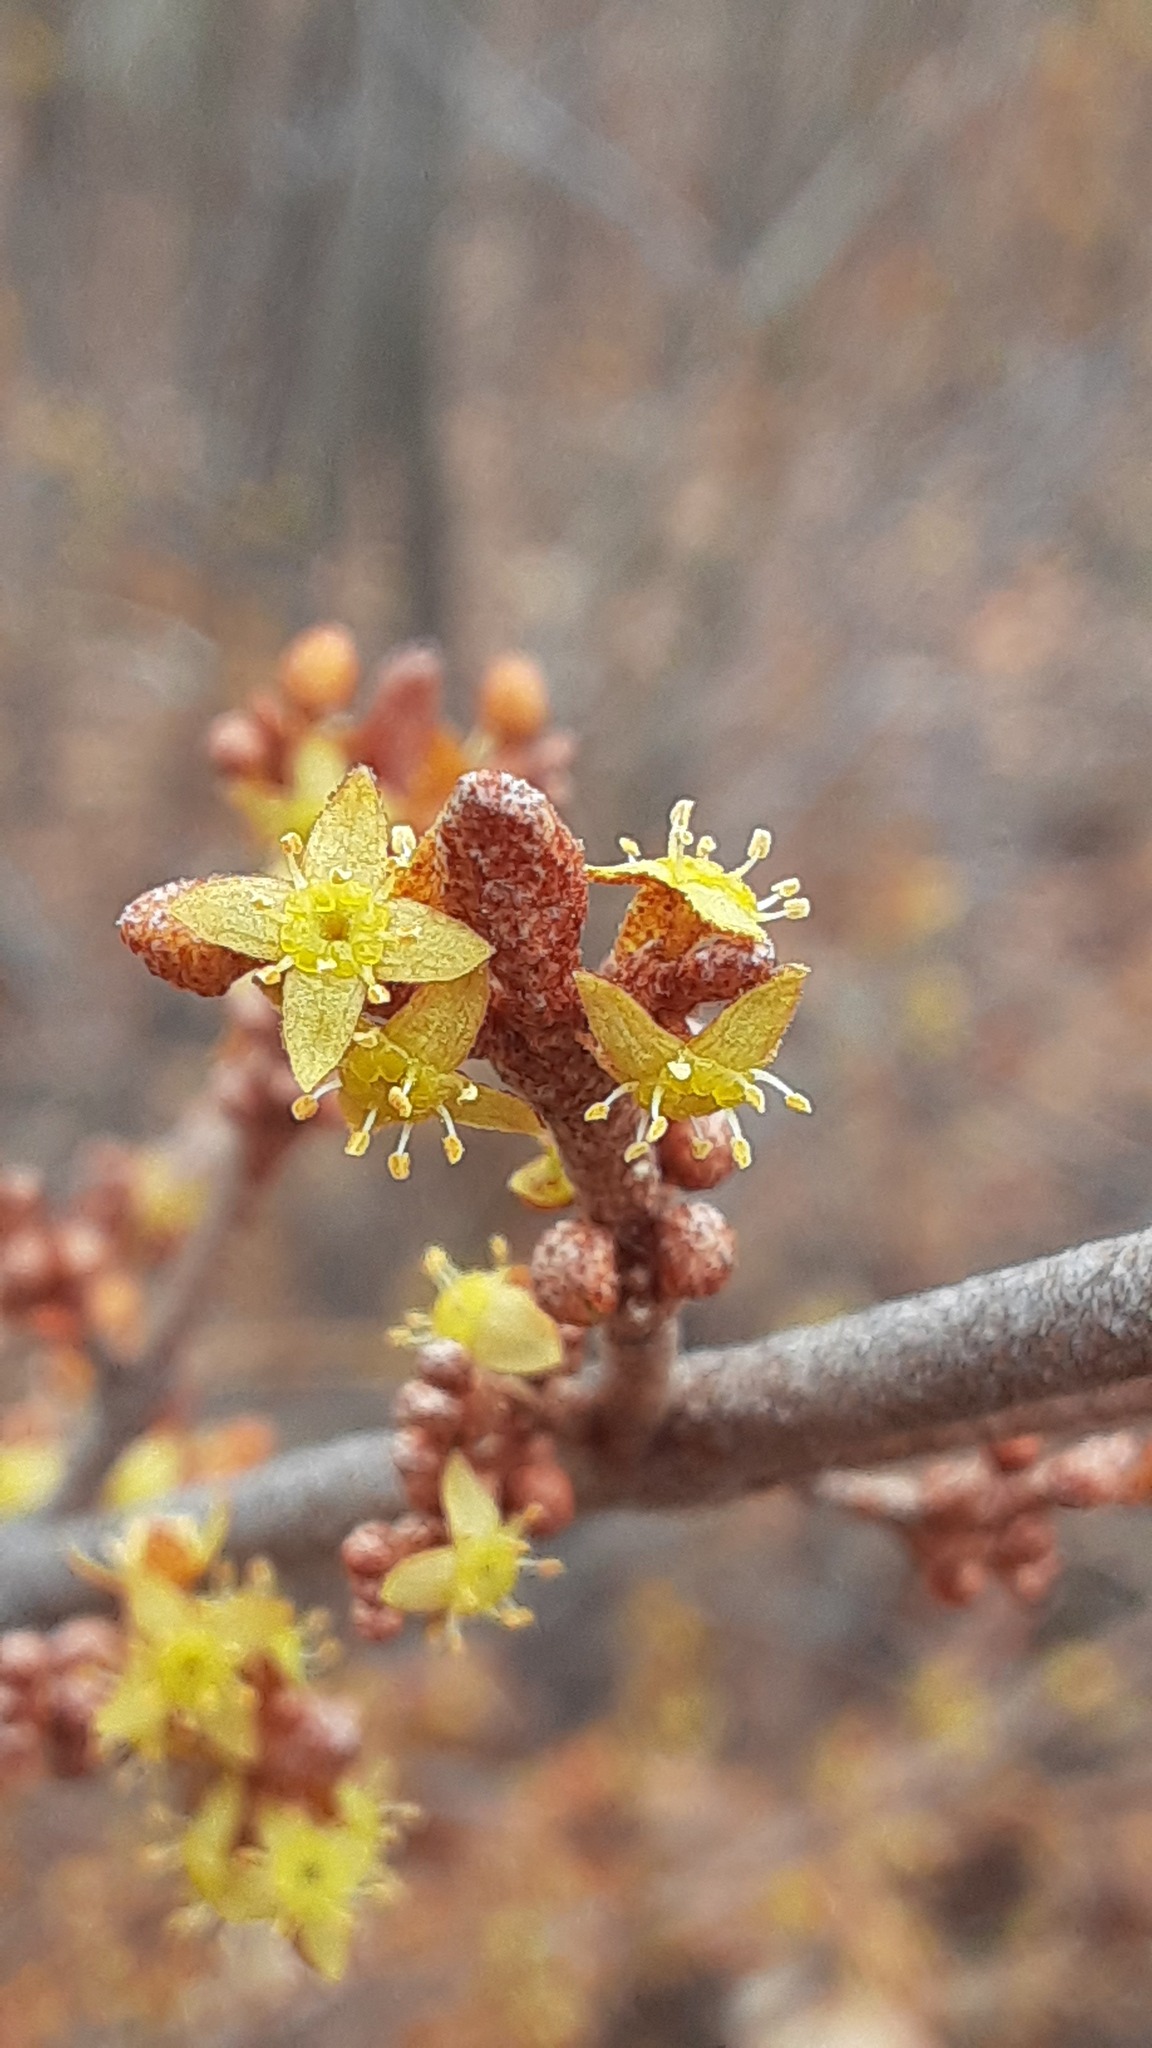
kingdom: Plantae
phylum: Tracheophyta
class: Magnoliopsida
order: Rosales
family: Elaeagnaceae
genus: Shepherdia
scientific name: Shepherdia canadensis
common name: Soapberry
